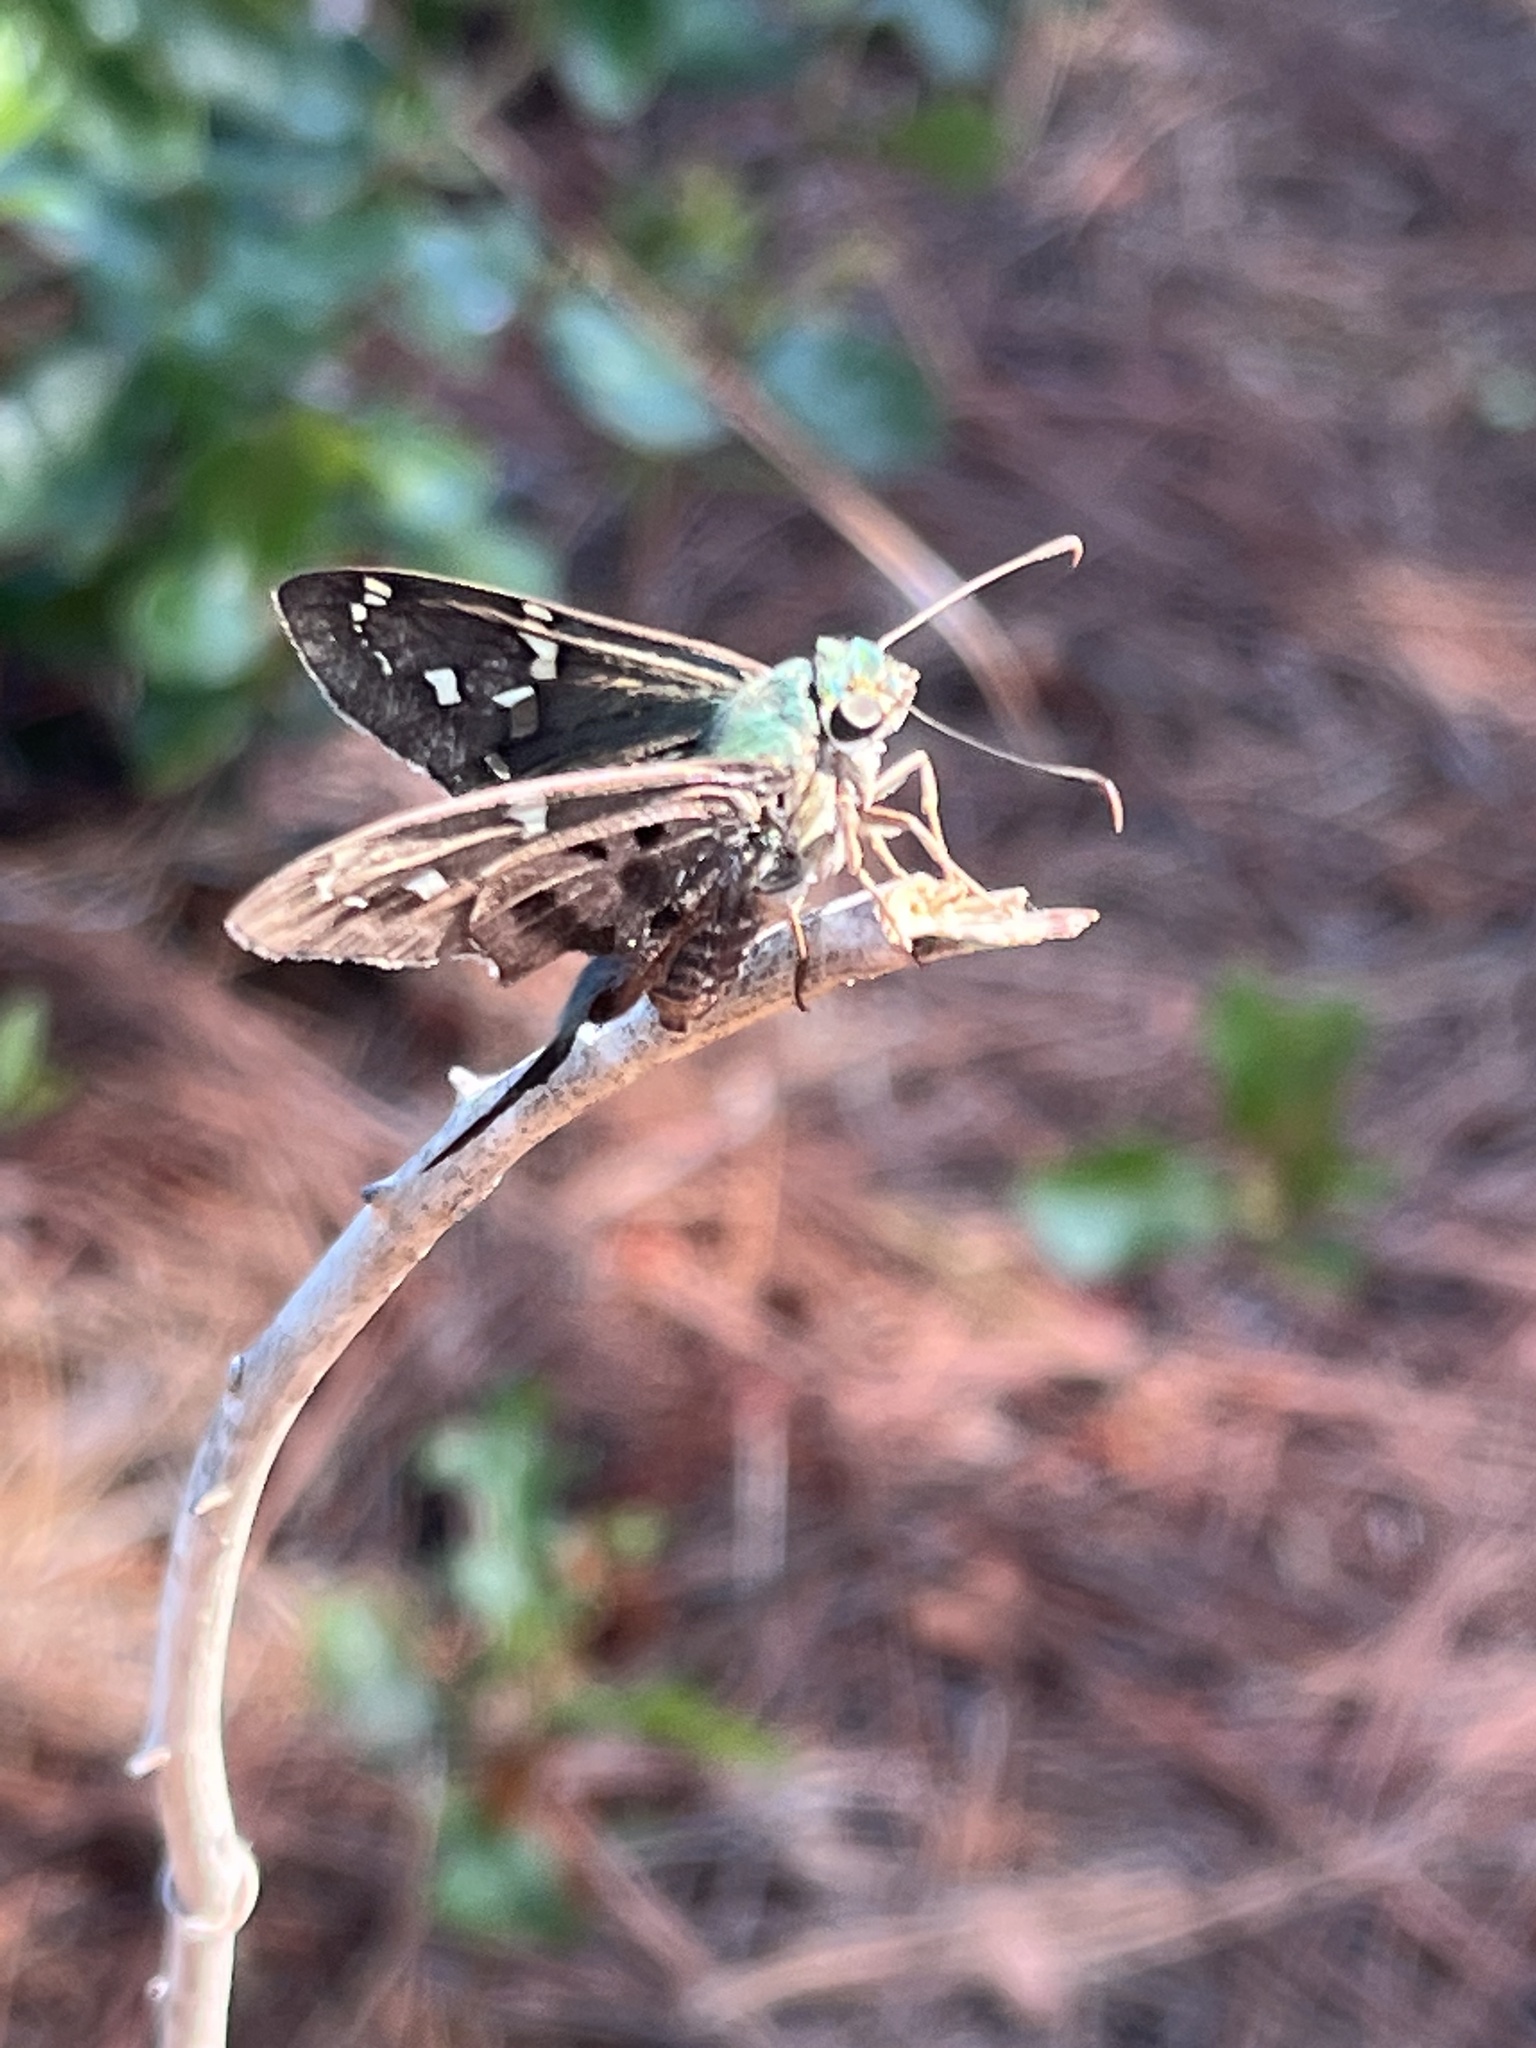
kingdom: Animalia
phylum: Arthropoda
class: Insecta
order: Lepidoptera
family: Hesperiidae
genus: Urbanus
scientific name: Urbanus proteus
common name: Long-tailed skipper
